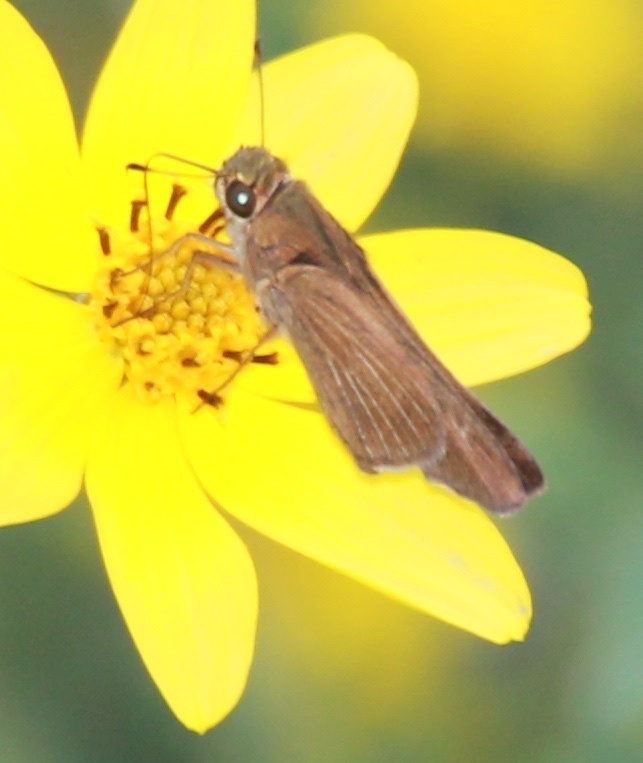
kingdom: Animalia
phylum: Arthropoda
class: Insecta
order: Lepidoptera
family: Hesperiidae
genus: Panoquina
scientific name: Panoquina ocola
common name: Ocola skipper
